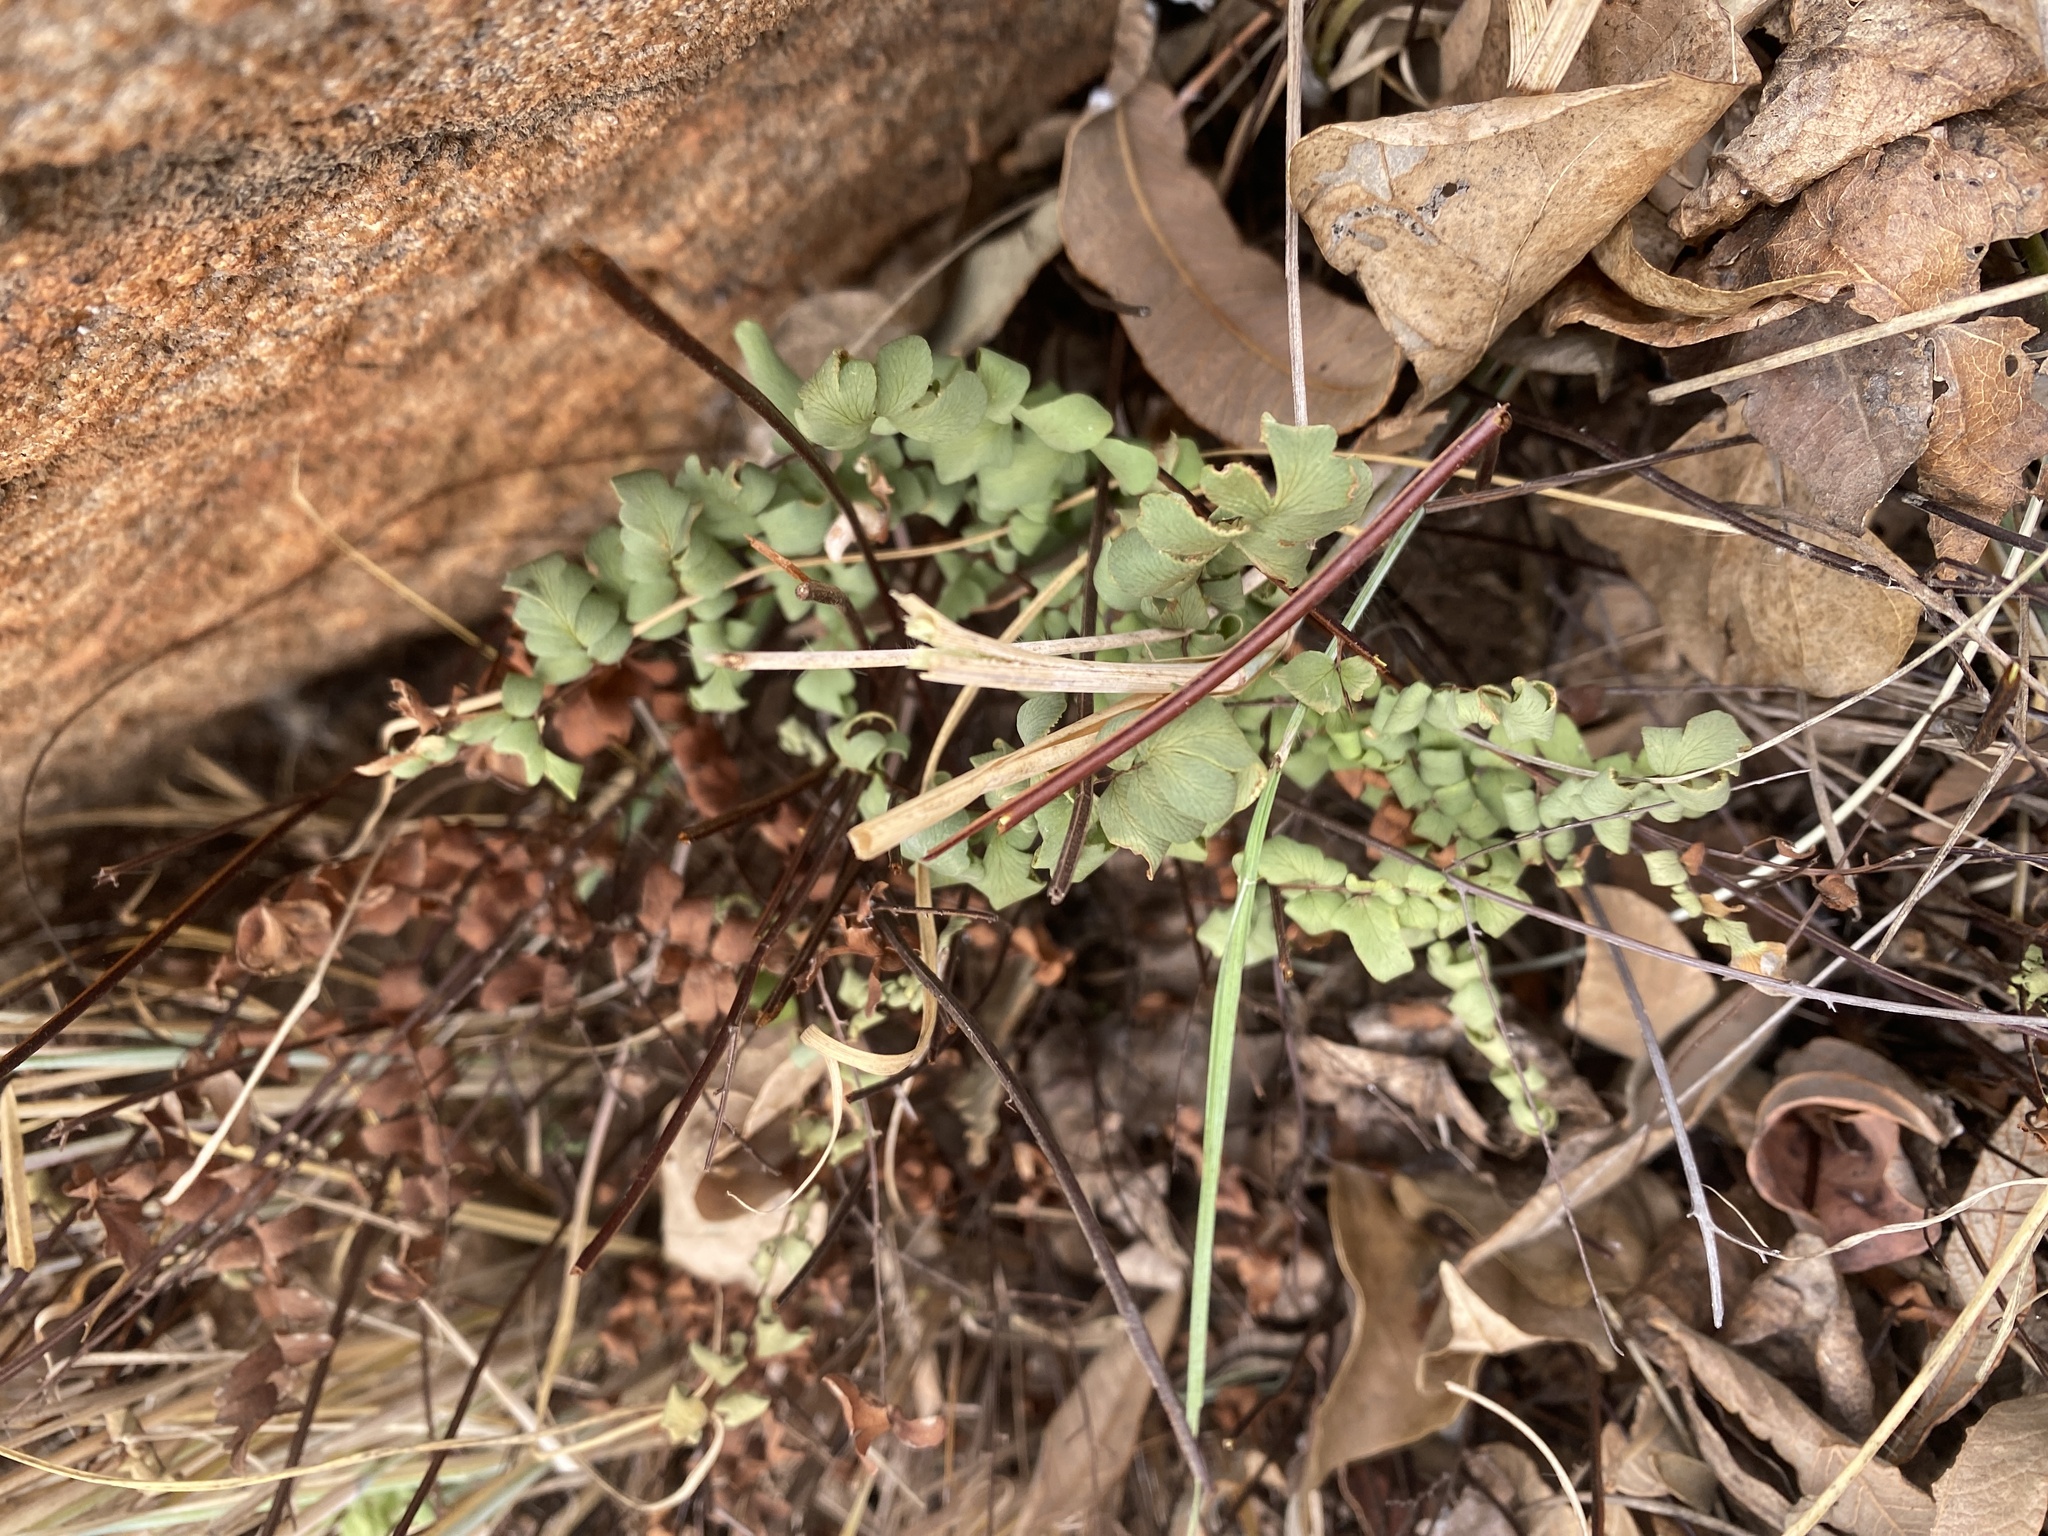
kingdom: Plantae
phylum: Tracheophyta
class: Polypodiopsida
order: Polypodiales
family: Pteridaceae
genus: Pellaea
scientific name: Pellaea calomelanos
